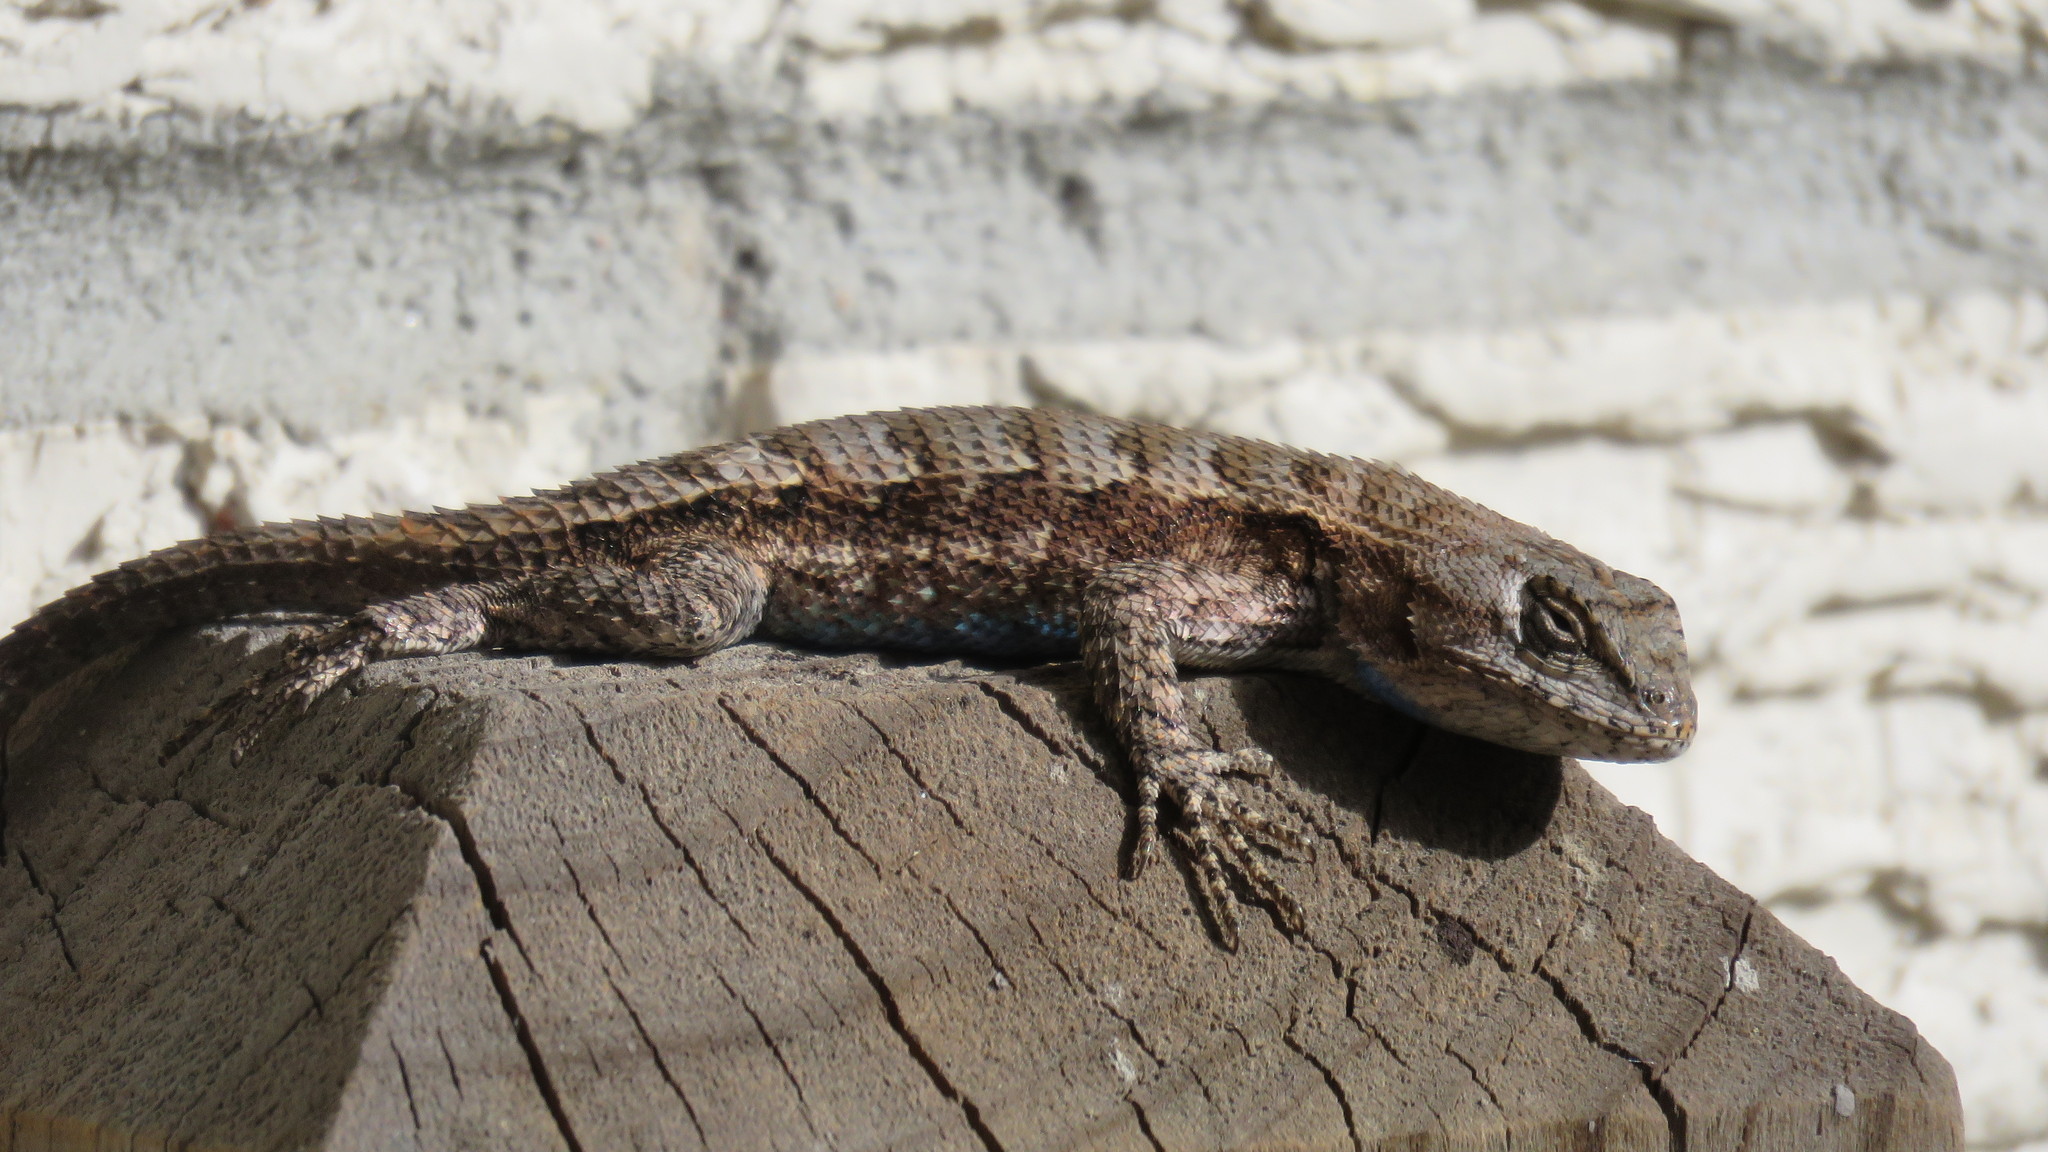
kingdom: Animalia
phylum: Chordata
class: Squamata
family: Phrynosomatidae
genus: Sceloporus
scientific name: Sceloporus consobrinus
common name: Southern prairie lizard
